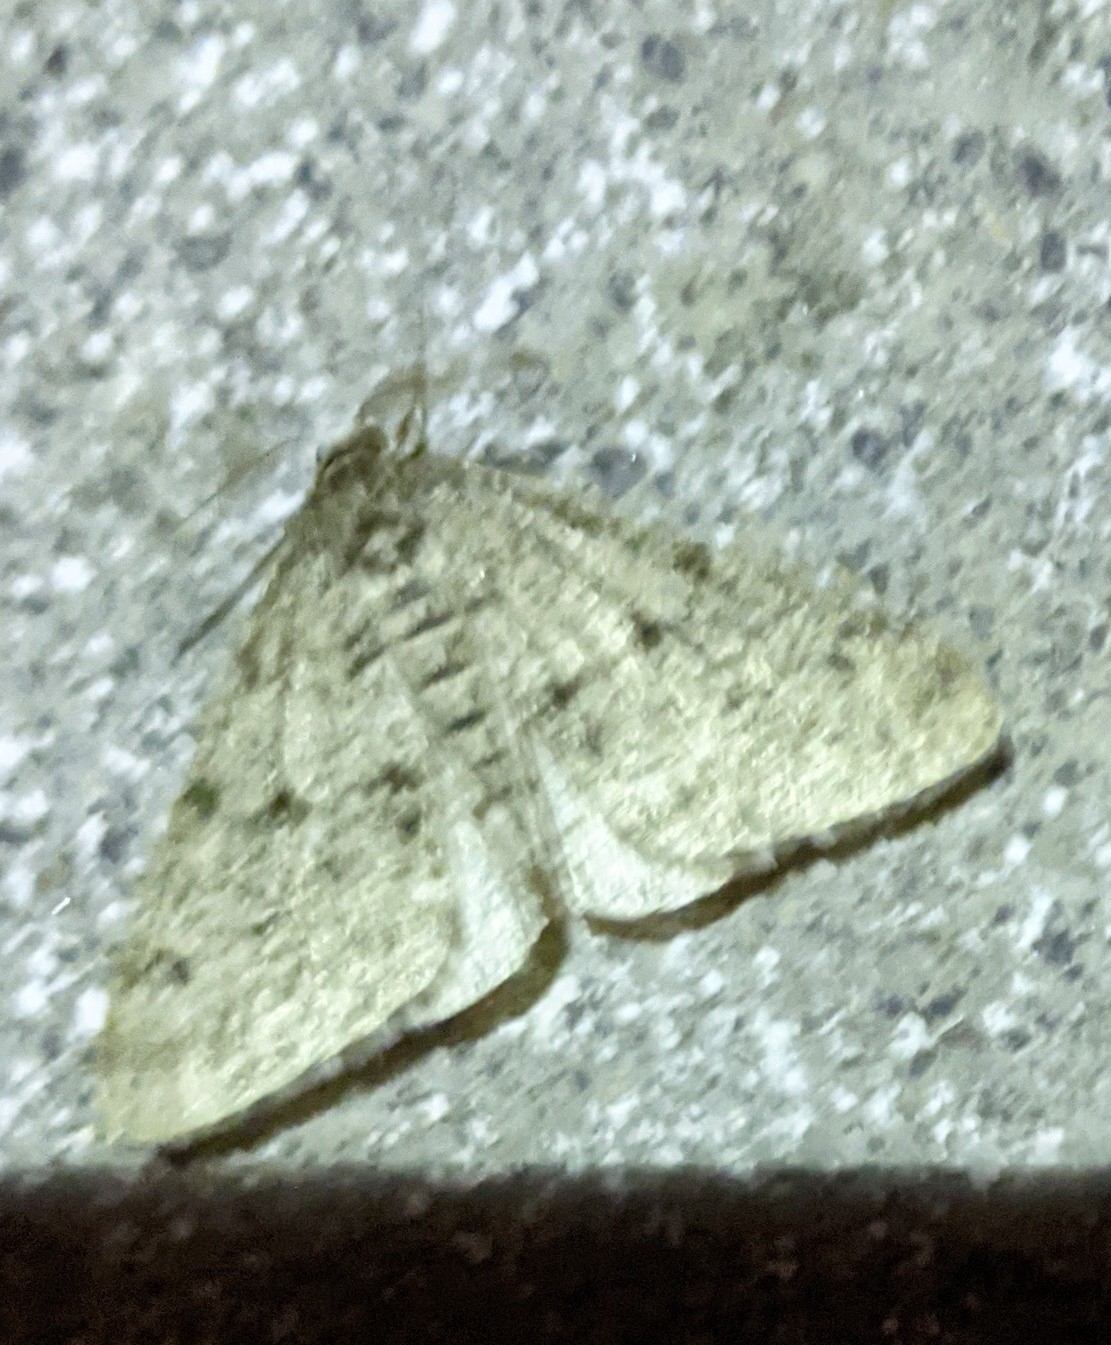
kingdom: Animalia
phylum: Arthropoda
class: Insecta
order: Lepidoptera
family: Geometridae
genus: Phigalia
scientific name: Phigalia strigataria
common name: Small phigalia
